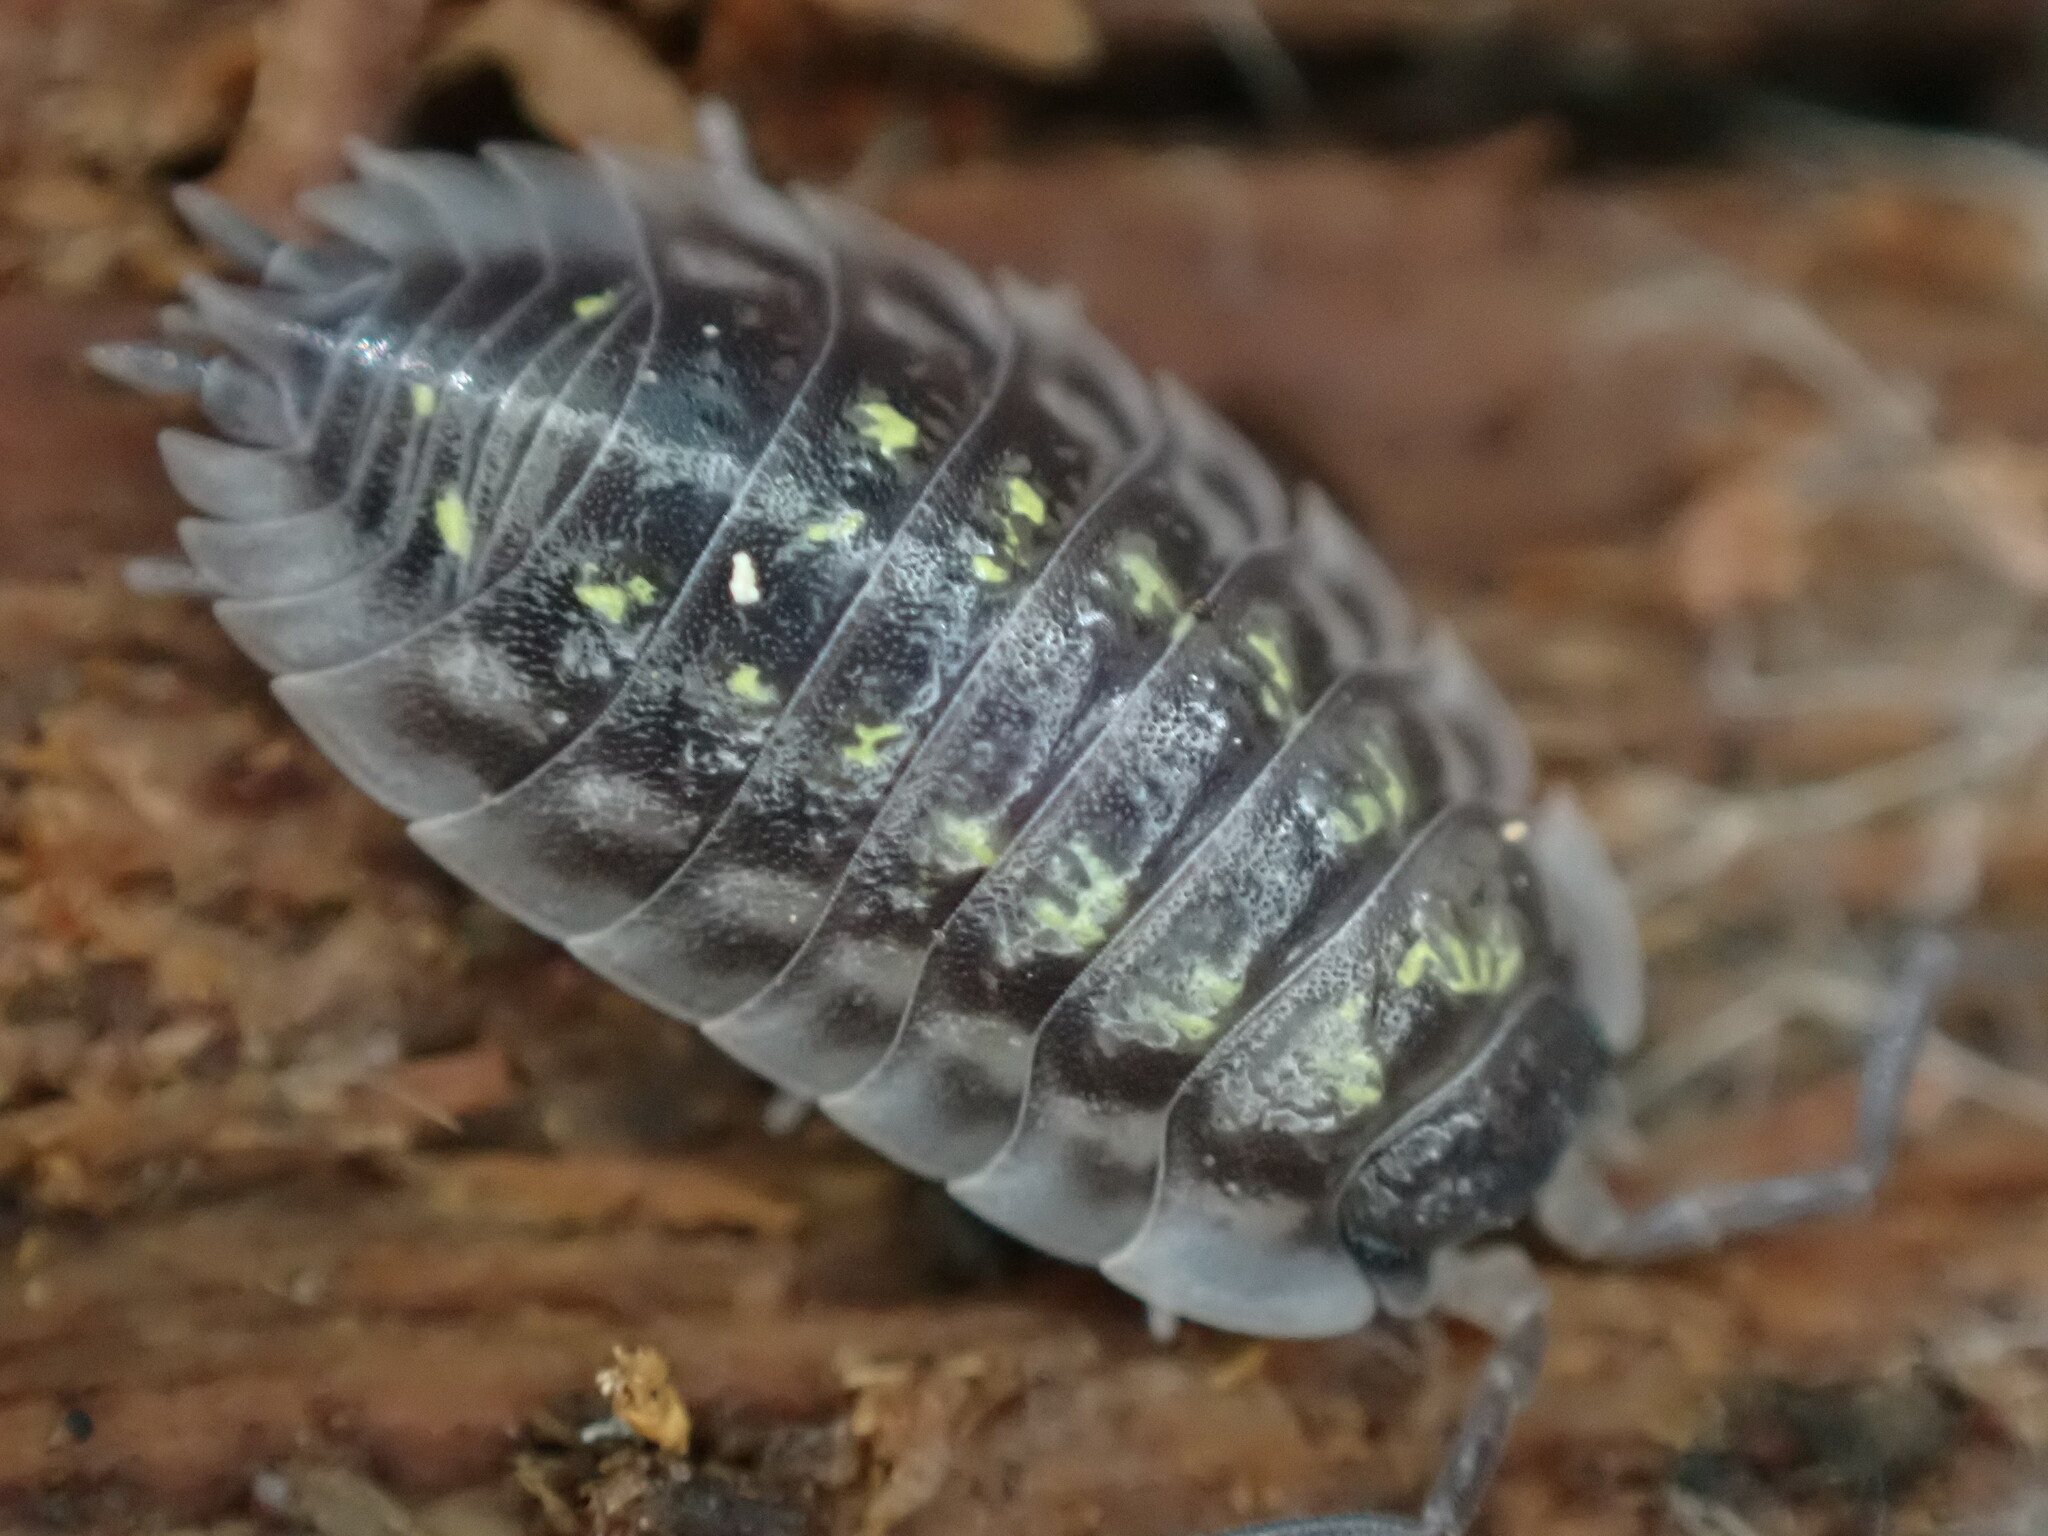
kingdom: Animalia
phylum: Arthropoda
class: Malacostraca
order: Isopoda
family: Oniscidae
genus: Oniscus
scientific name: Oniscus asellus
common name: Common shiny woodlouse
